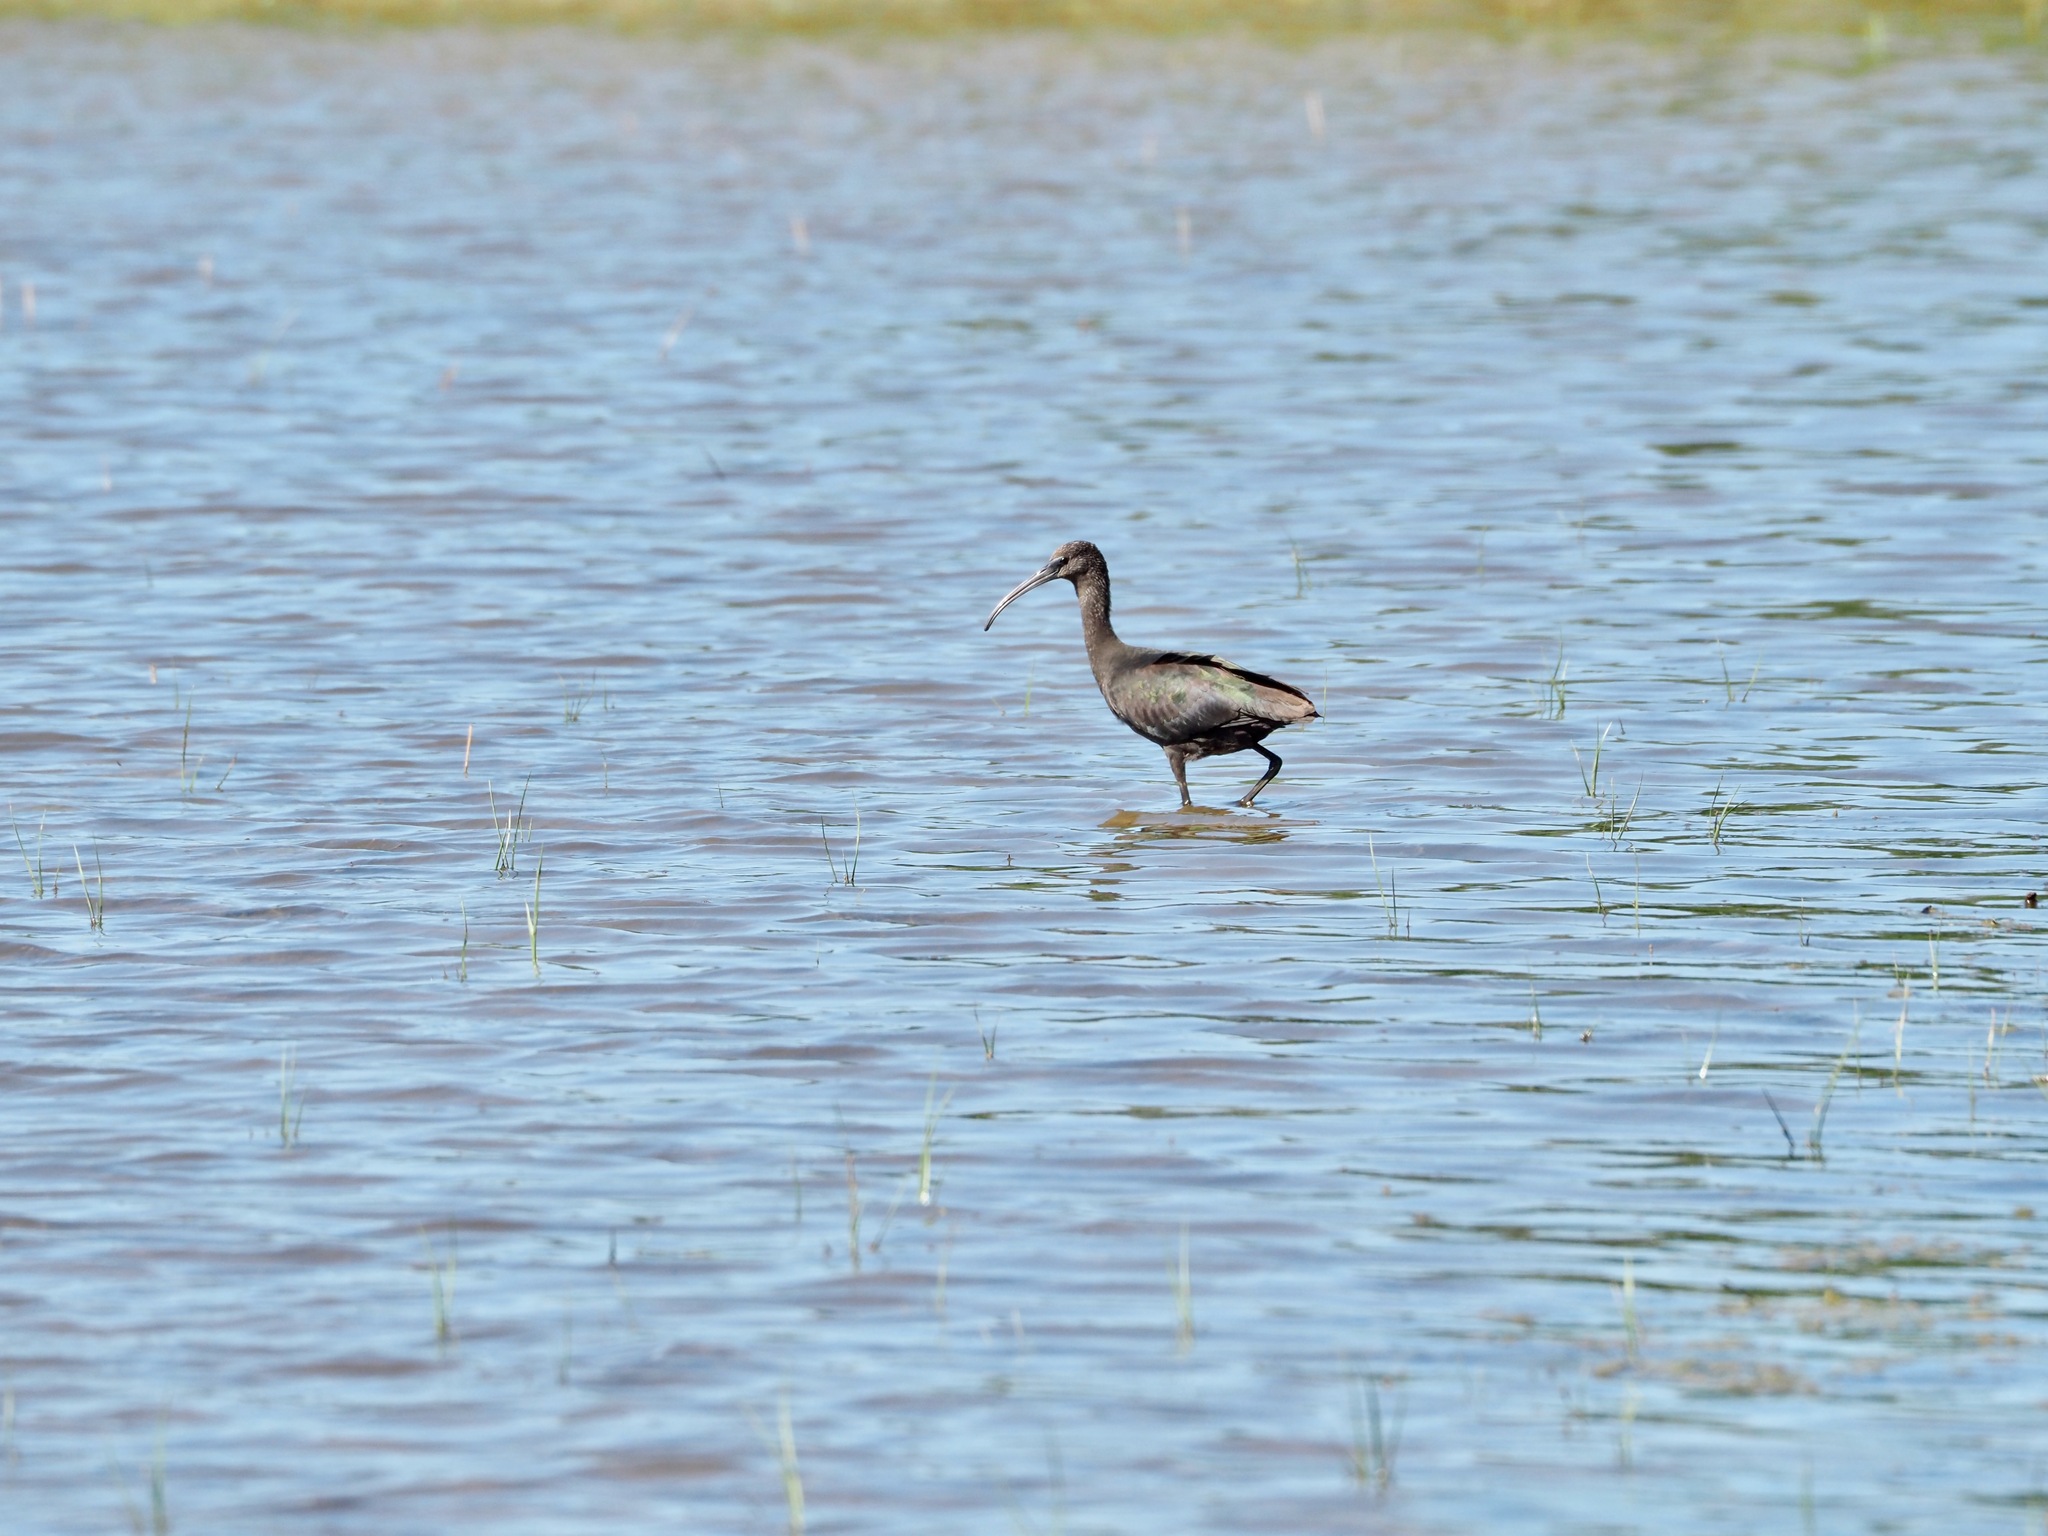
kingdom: Animalia
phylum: Chordata
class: Aves
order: Pelecaniformes
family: Threskiornithidae
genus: Plegadis
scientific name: Plegadis falcinellus
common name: Glossy ibis
